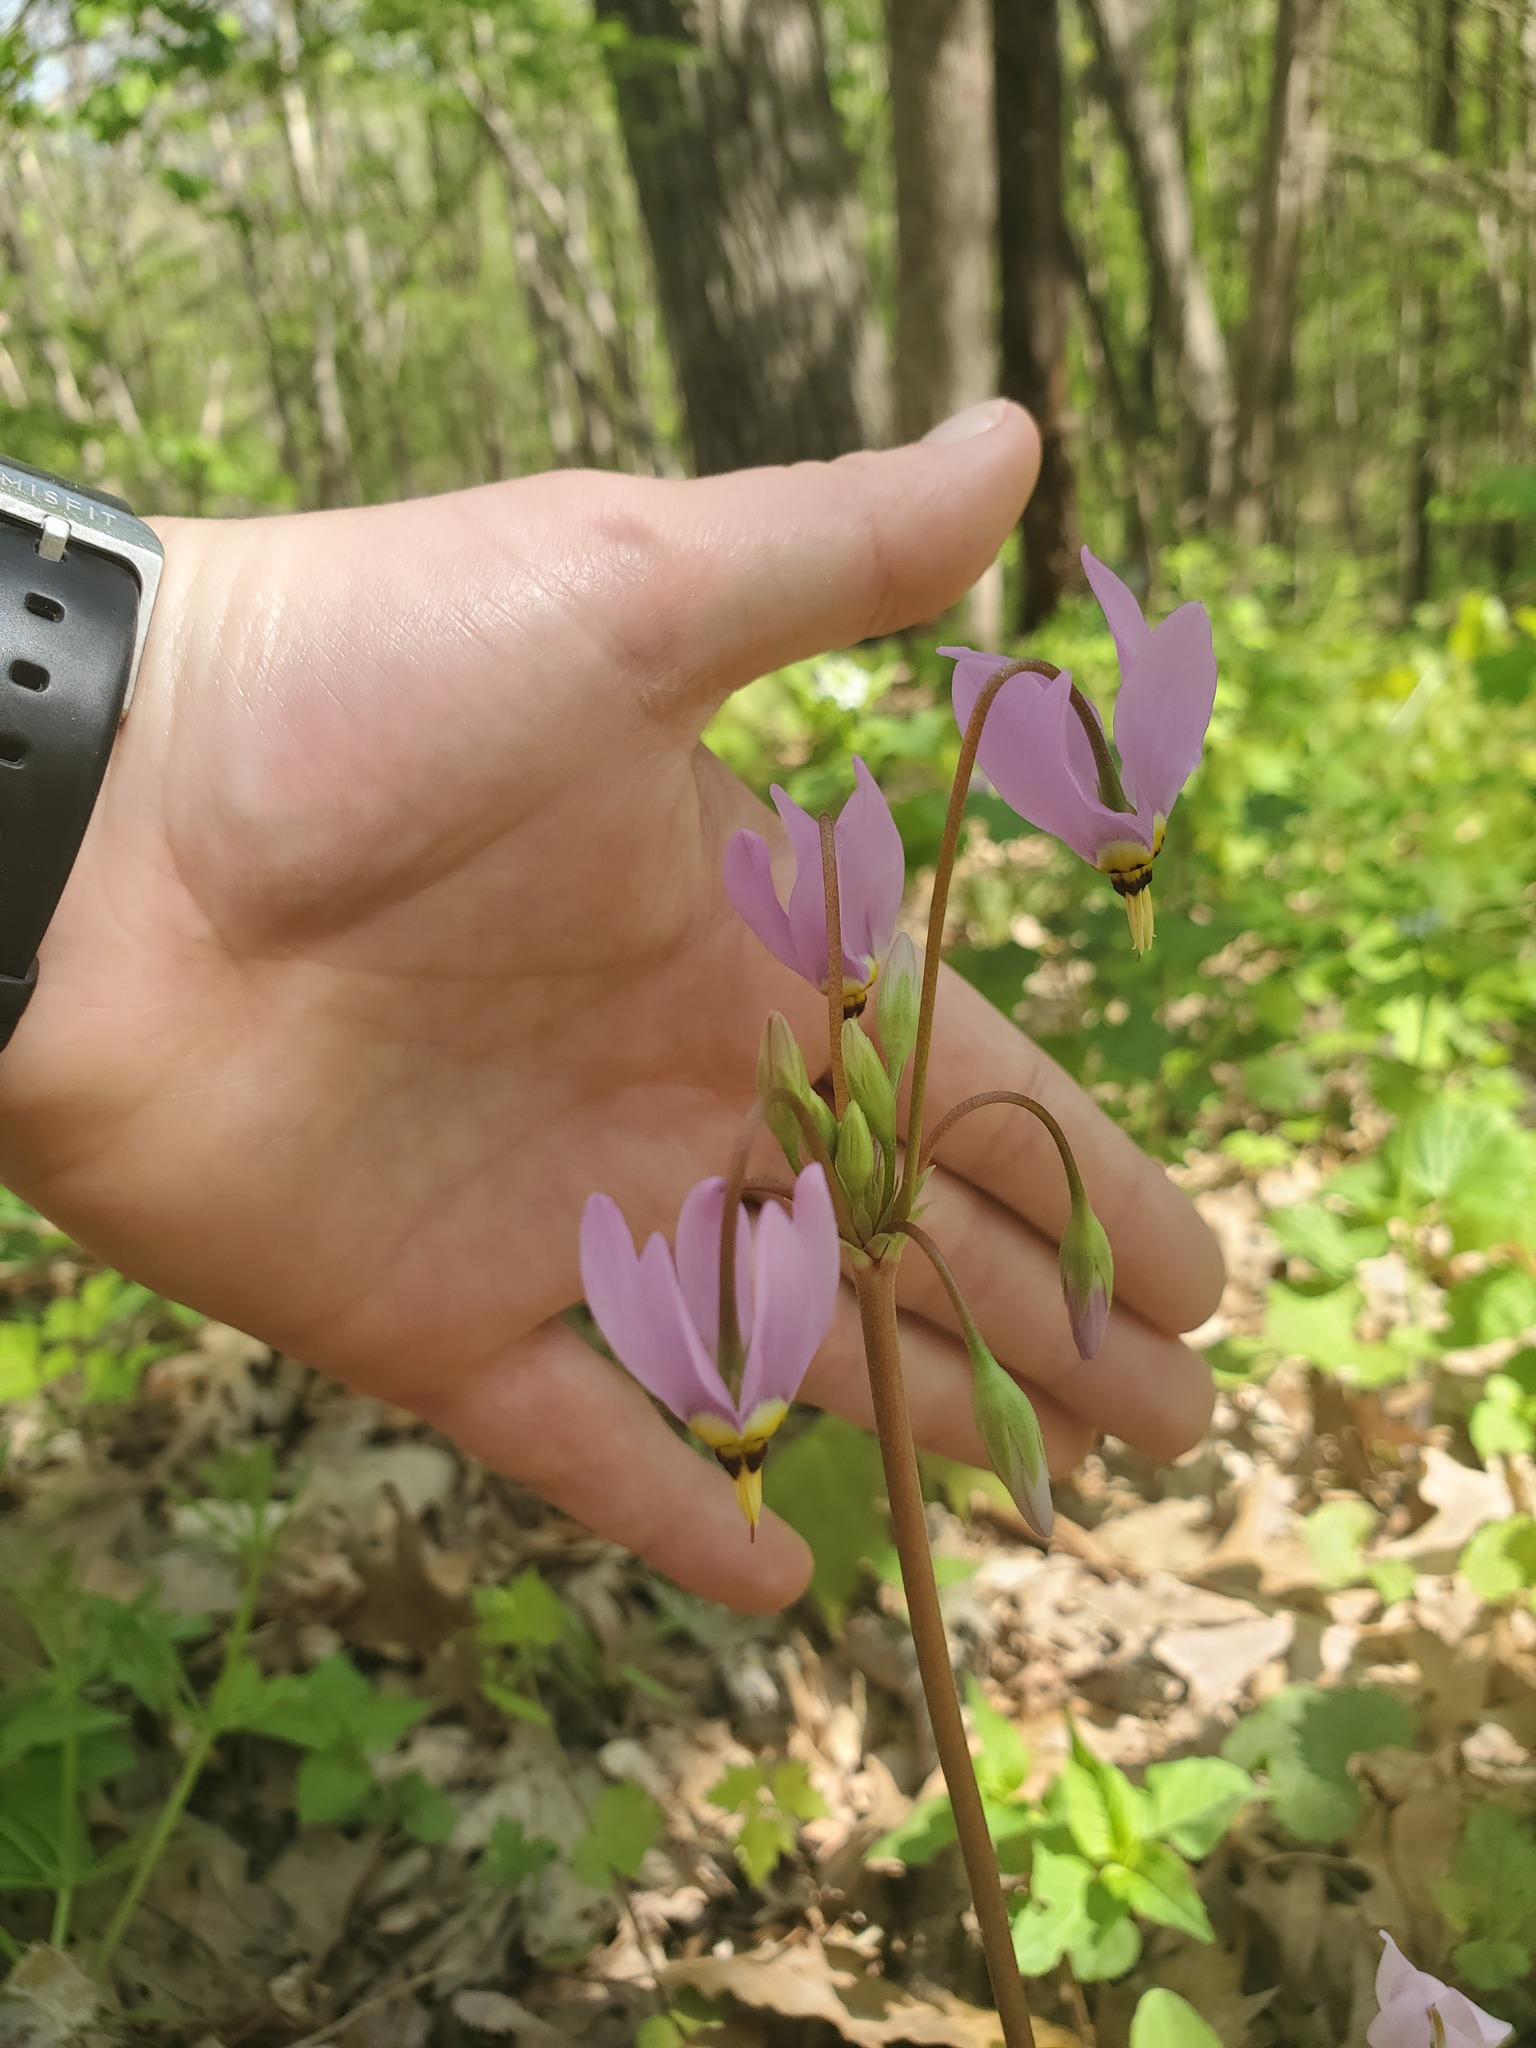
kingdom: Plantae
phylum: Tracheophyta
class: Magnoliopsida
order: Ericales
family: Primulaceae
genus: Dodecatheon
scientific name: Dodecatheon meadia
